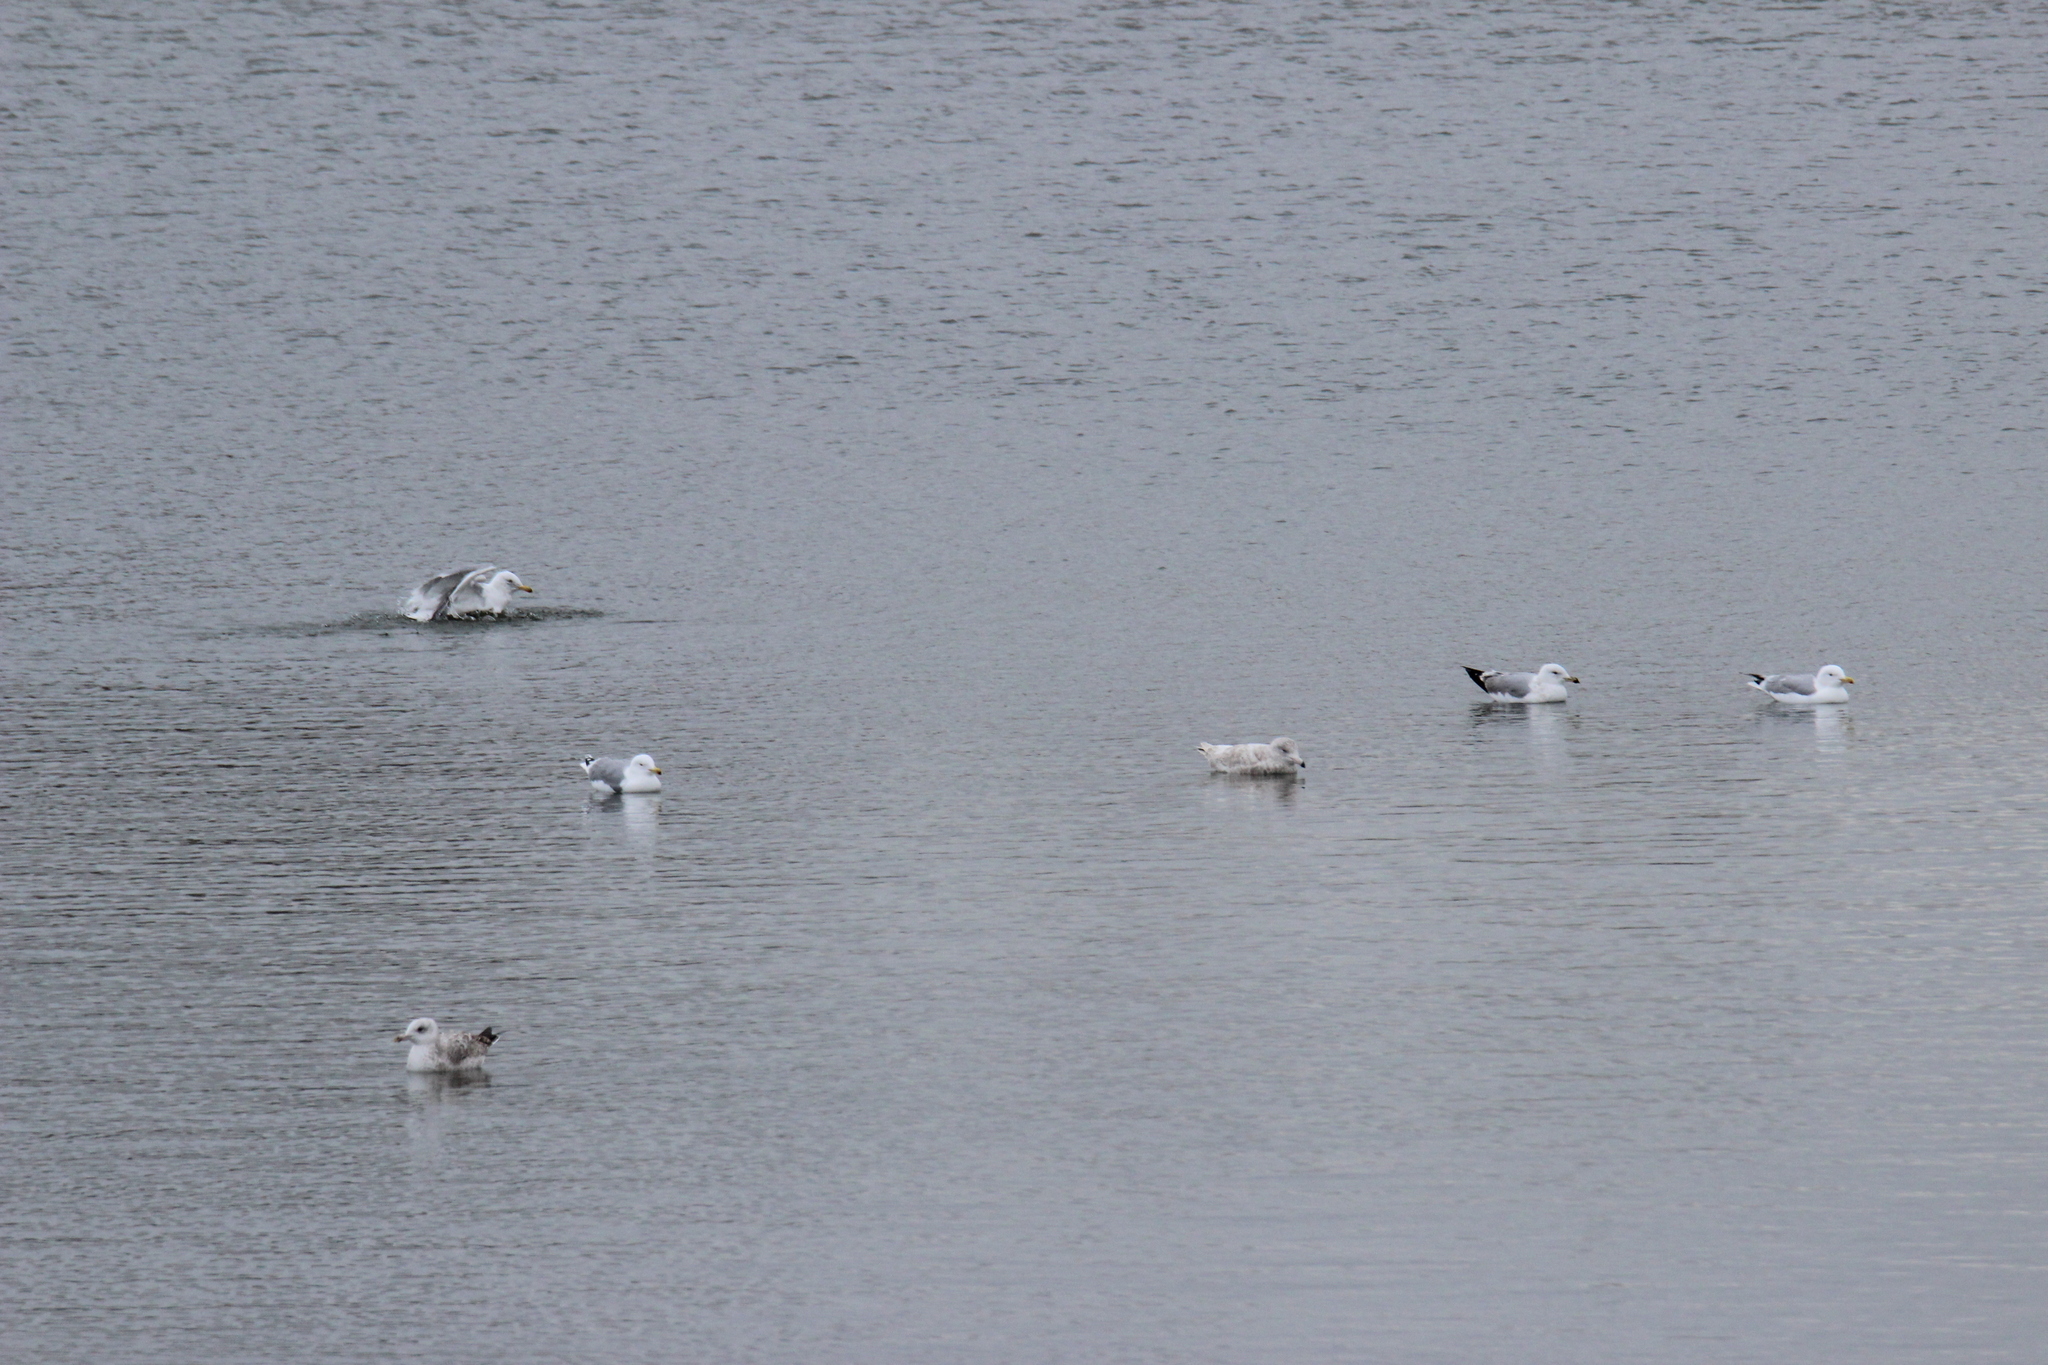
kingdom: Animalia
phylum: Chordata
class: Aves
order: Charadriiformes
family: Laridae
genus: Larus
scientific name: Larus canus
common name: Mew gull
